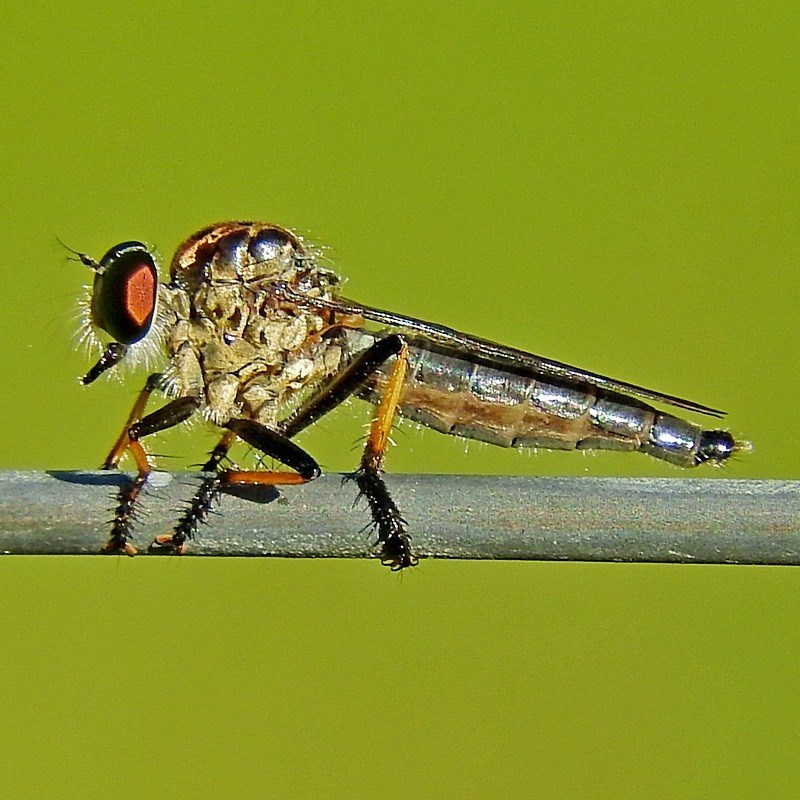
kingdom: Animalia
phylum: Arthropoda
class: Insecta
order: Diptera
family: Asilidae
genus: Ommatius
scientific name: Ommatius coeraebus
